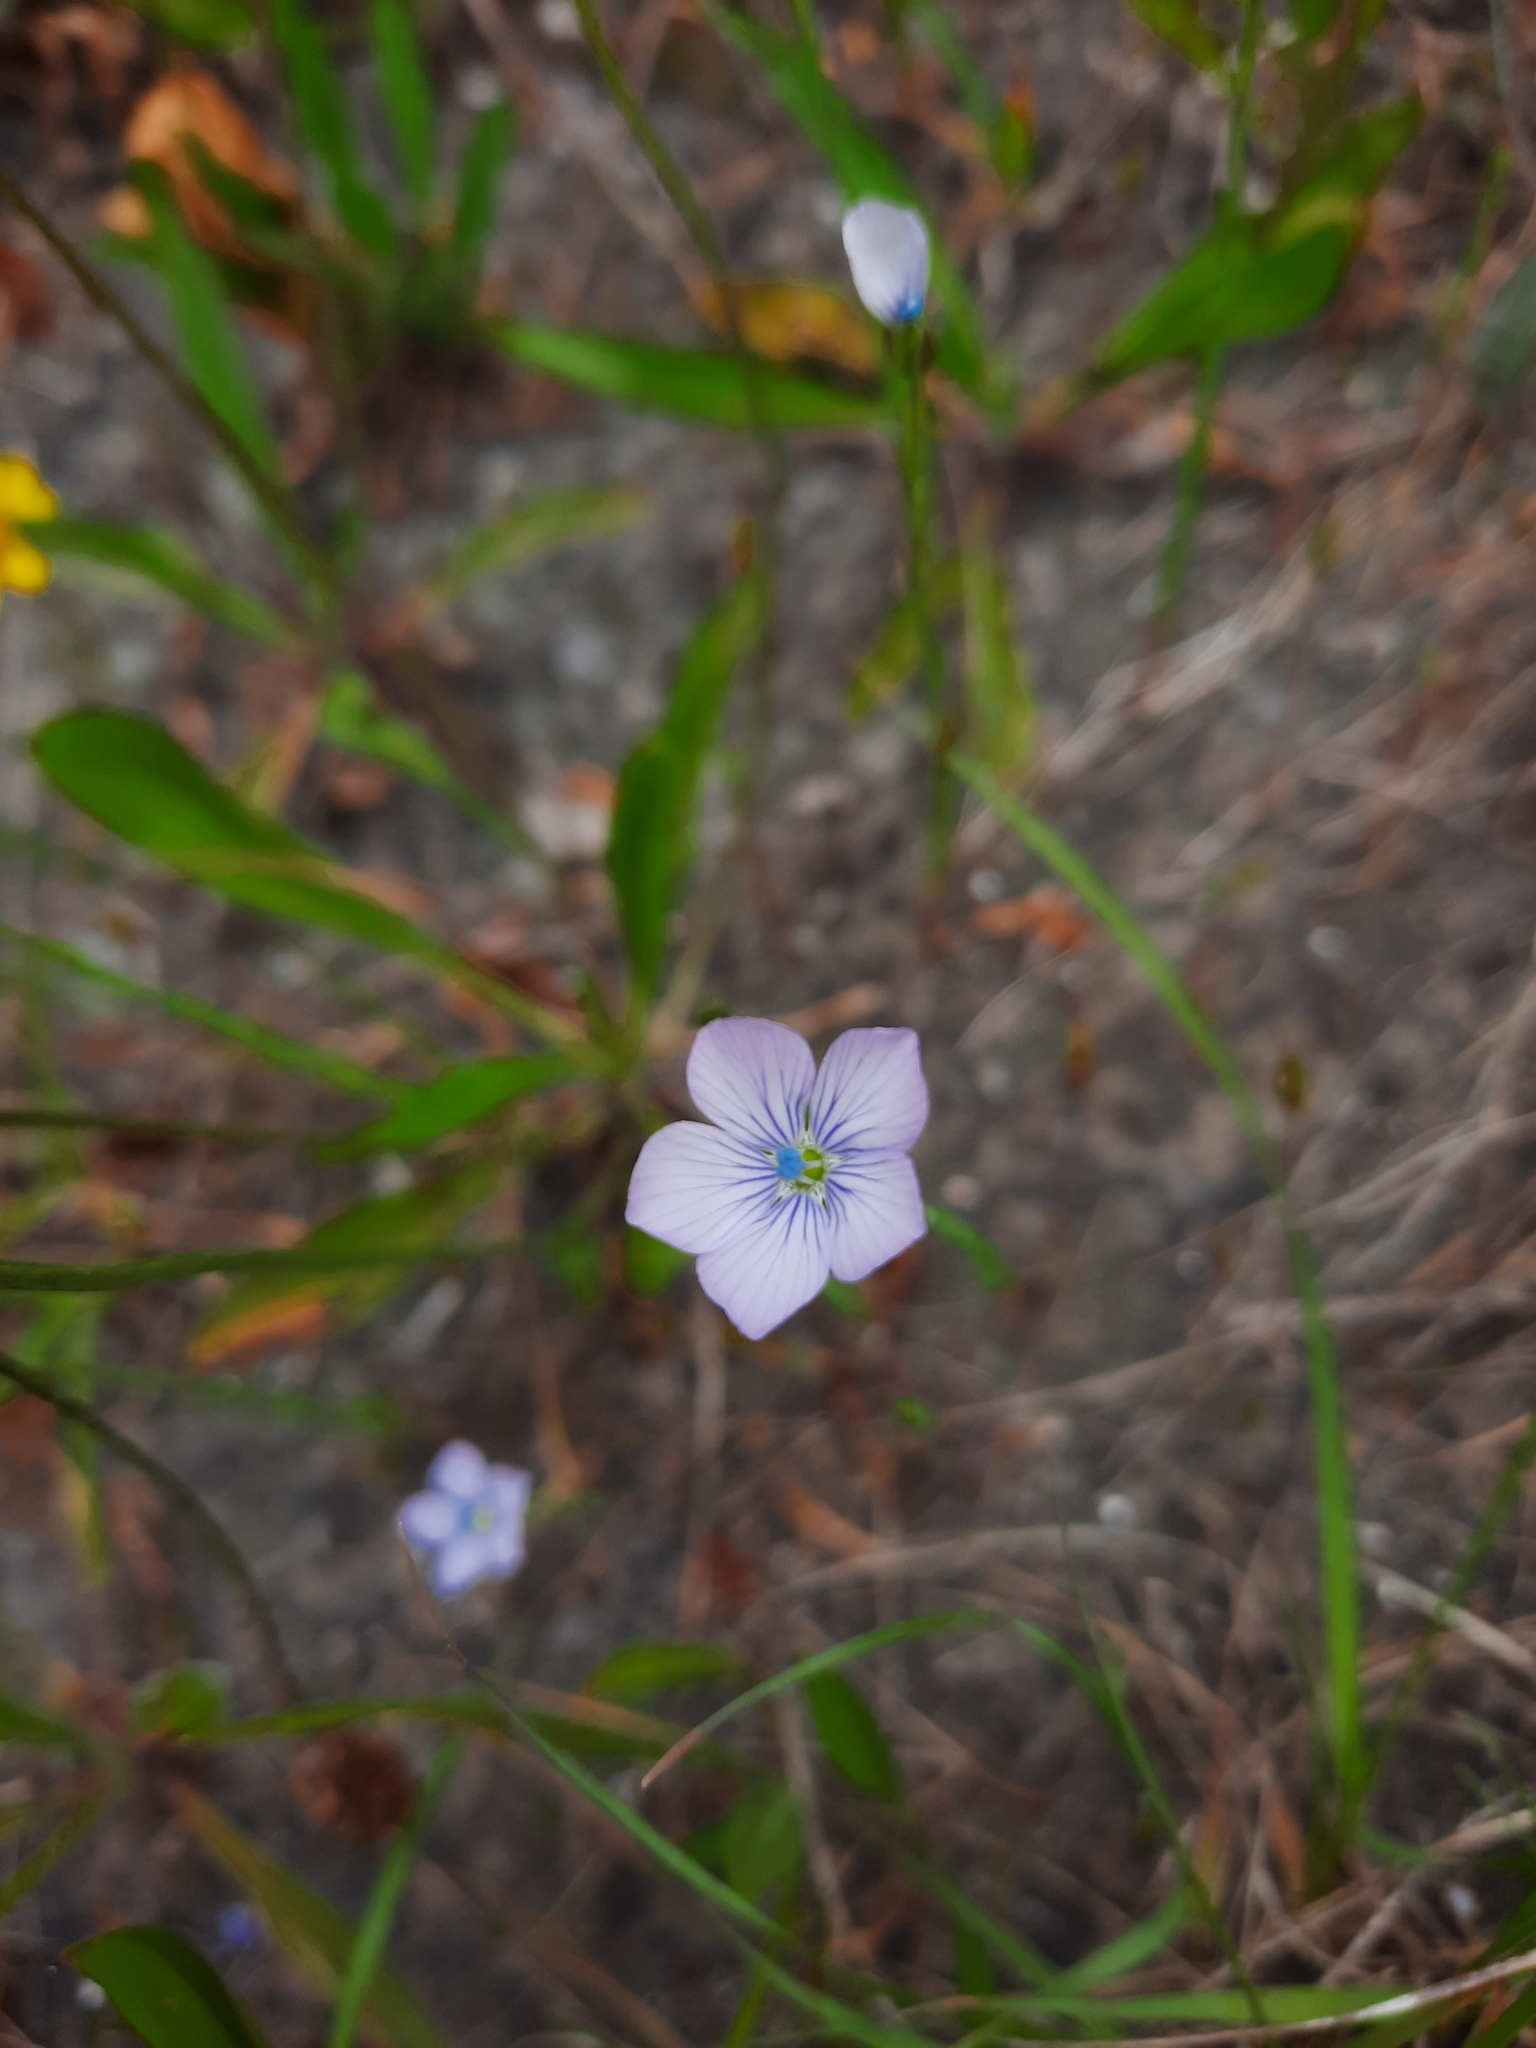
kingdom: Plantae
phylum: Tracheophyta
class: Magnoliopsida
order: Malpighiales
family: Linaceae
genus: Linum
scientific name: Linum bienne
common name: Pale flax
